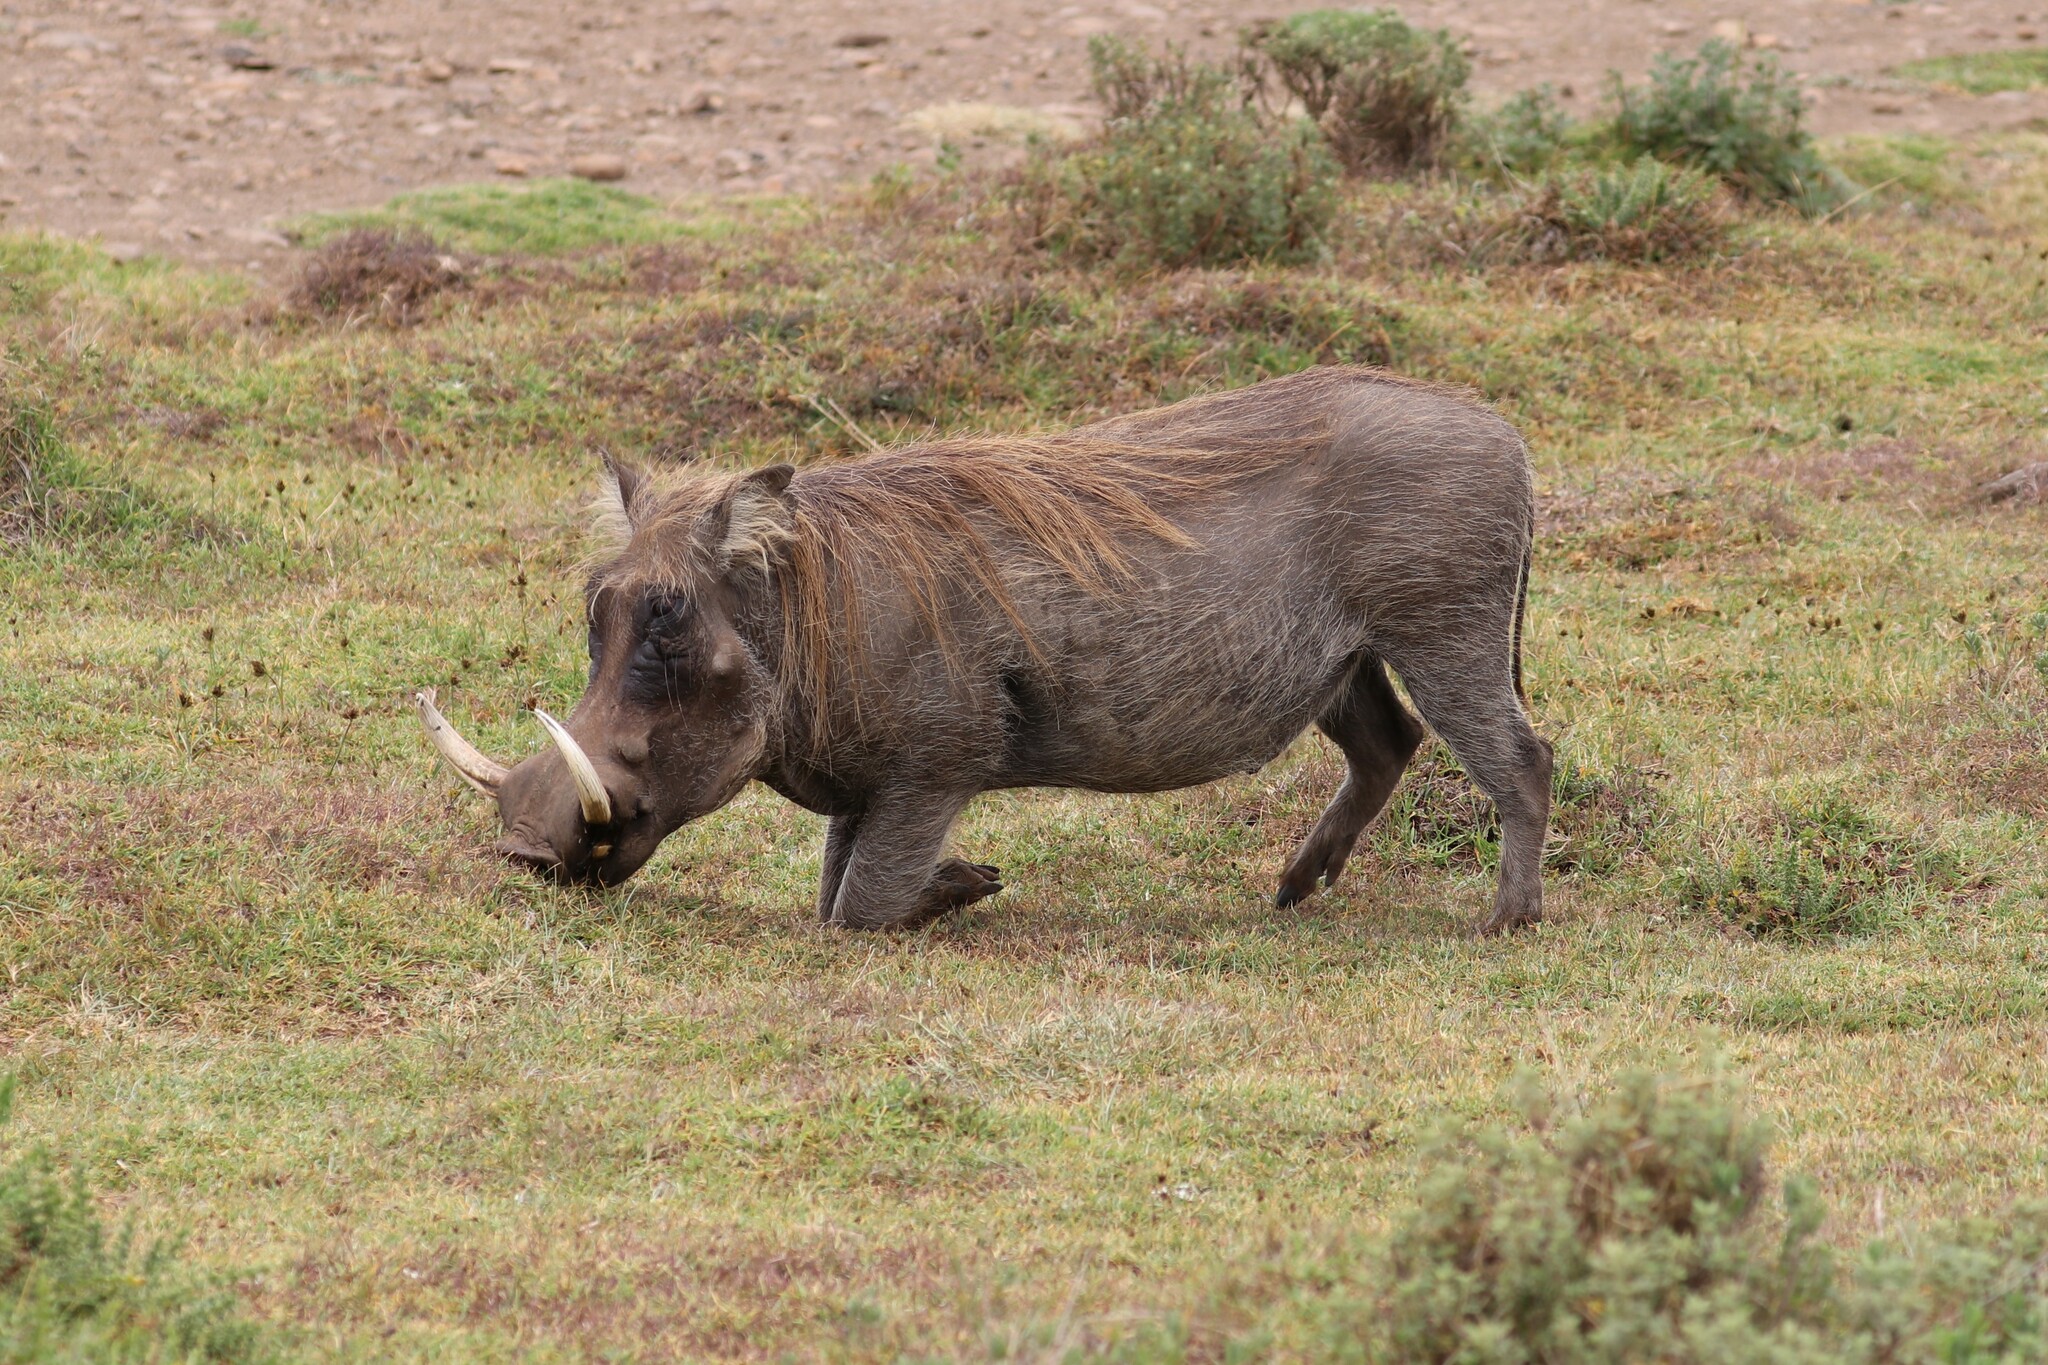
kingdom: Animalia
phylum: Chordata
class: Mammalia
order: Artiodactyla
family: Suidae
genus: Phacochoerus
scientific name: Phacochoerus africanus
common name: Common warthog
